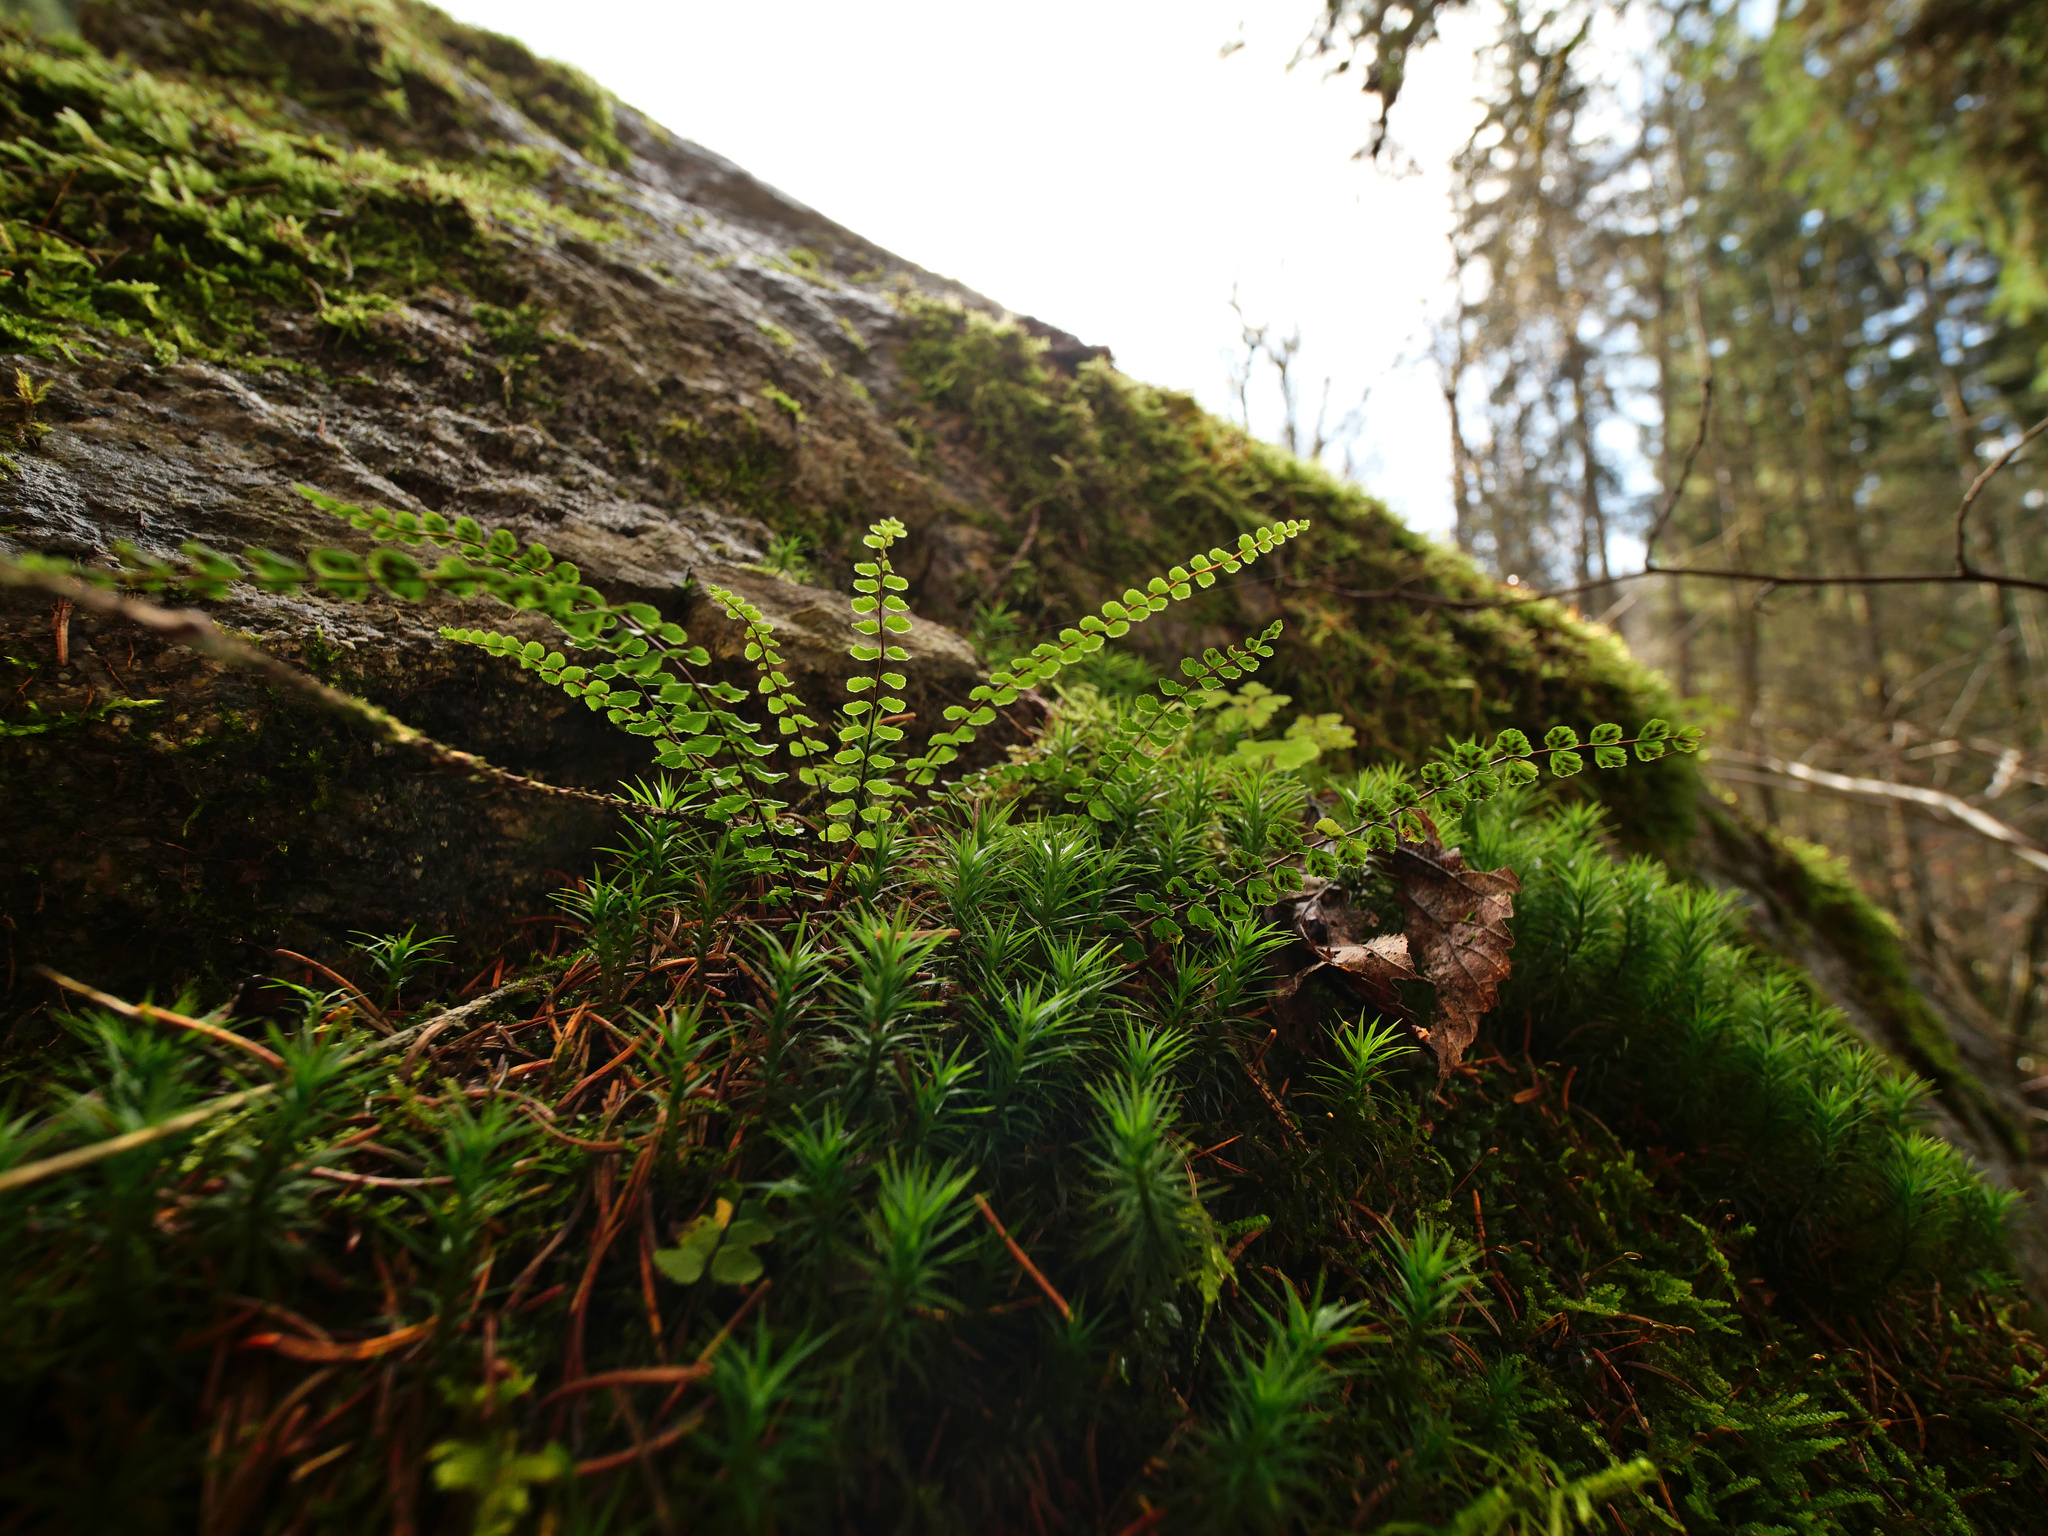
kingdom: Plantae
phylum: Tracheophyta
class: Polypodiopsida
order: Polypodiales
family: Aspleniaceae
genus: Asplenium
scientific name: Asplenium trichomanes
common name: Maidenhair spleenwort
